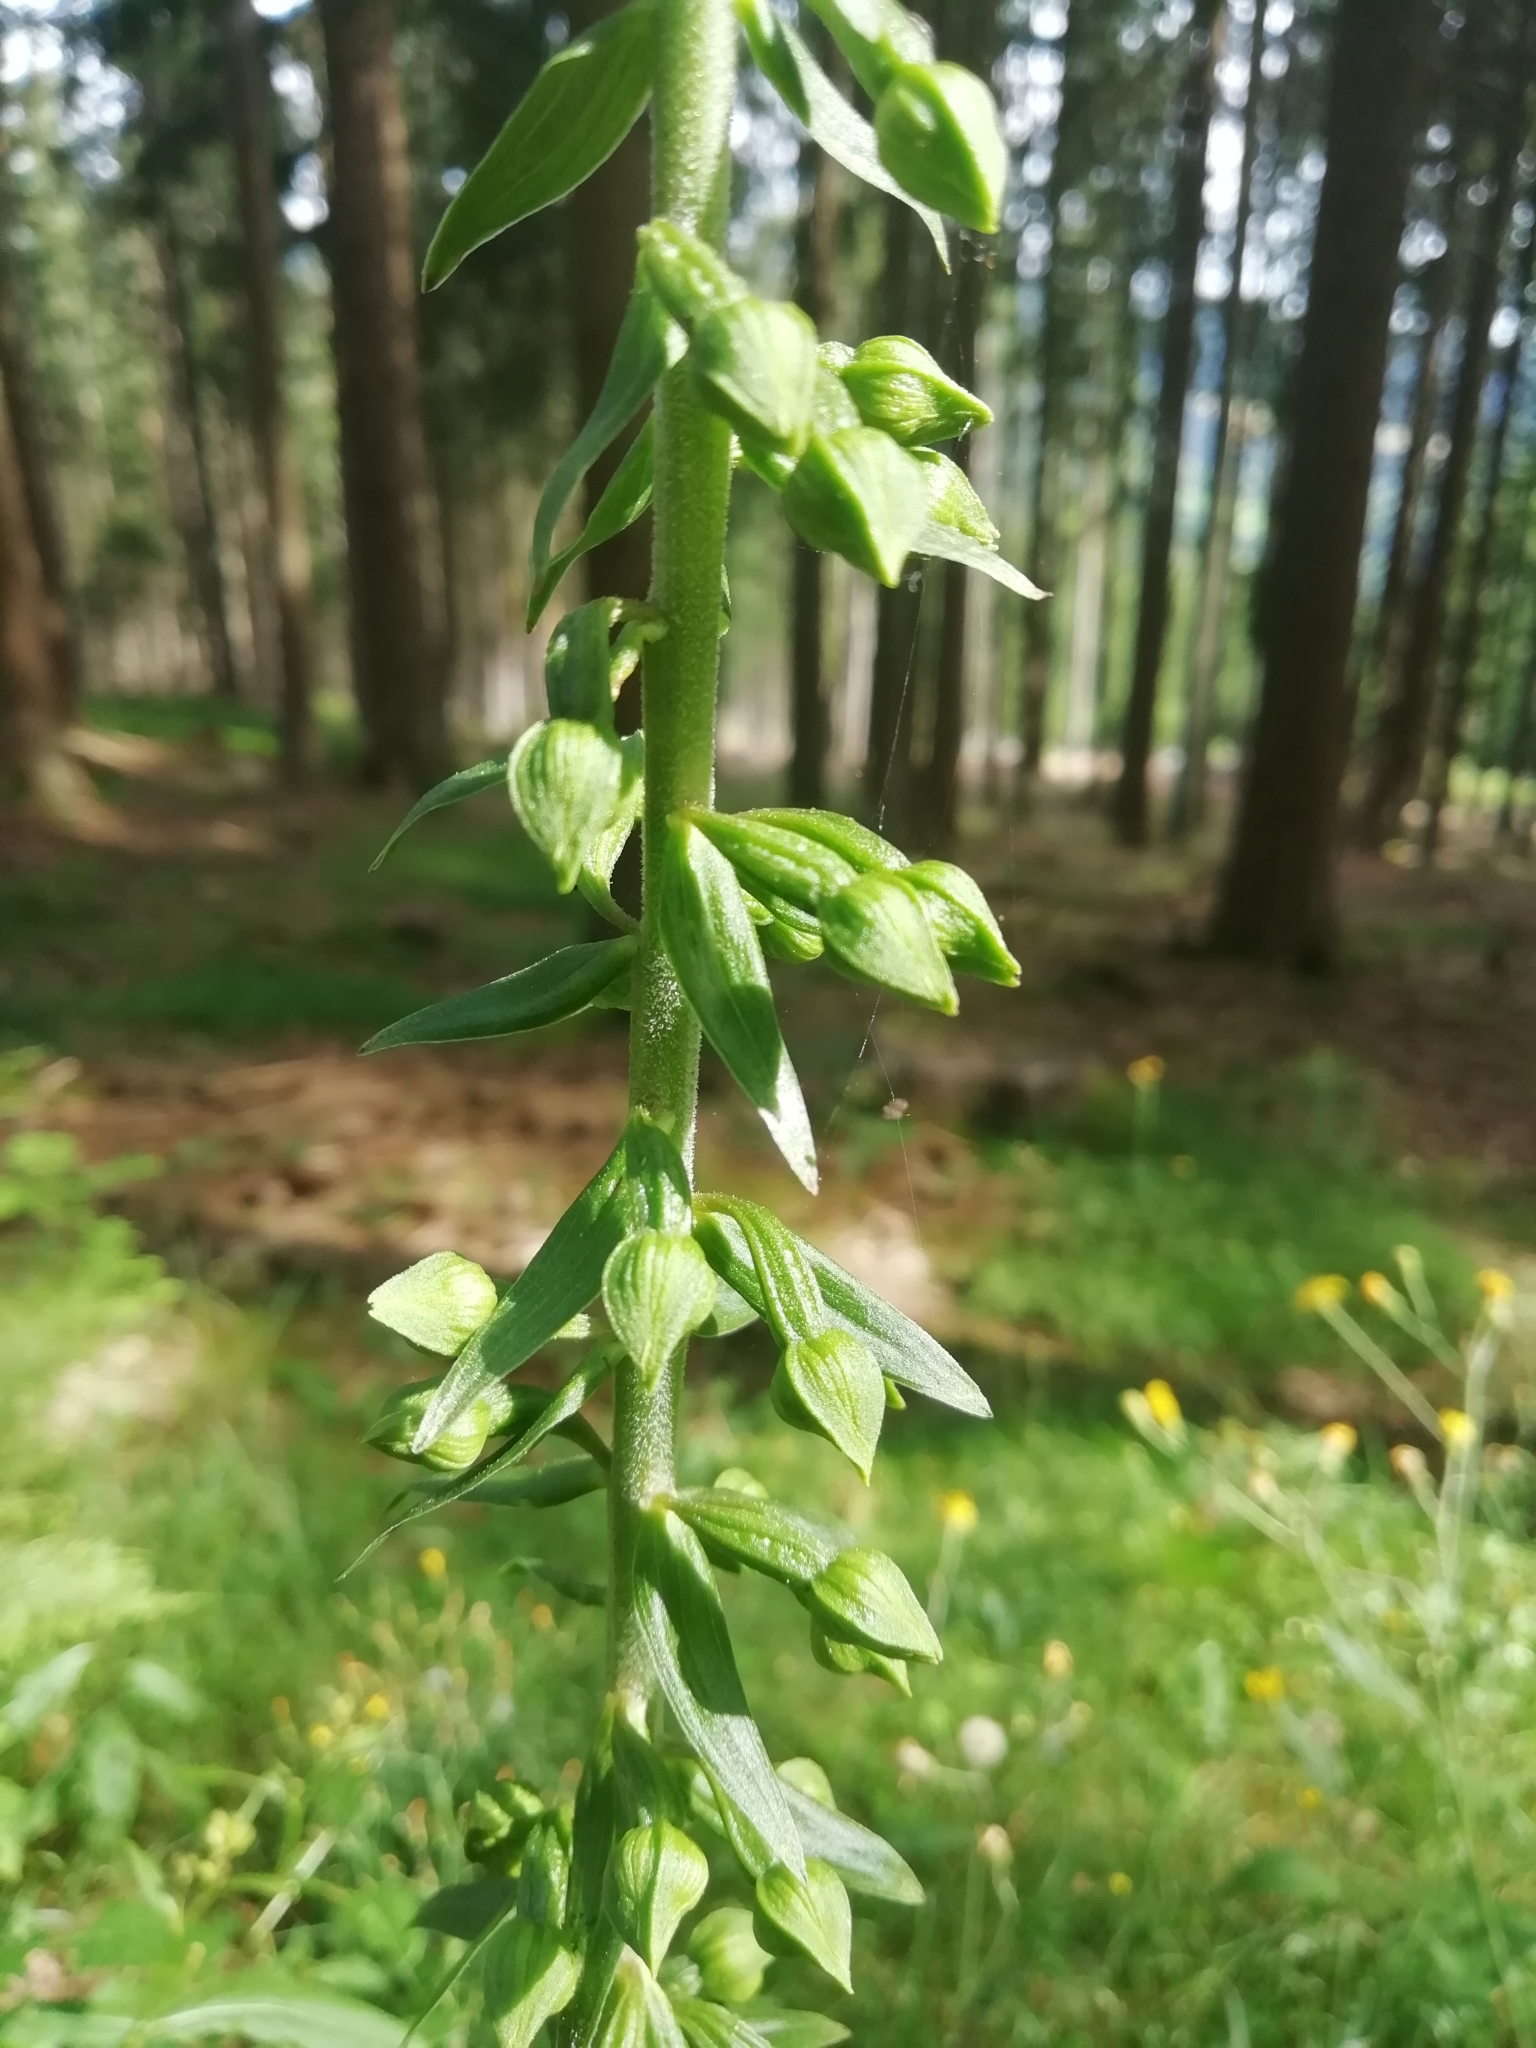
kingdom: Plantae
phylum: Tracheophyta
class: Liliopsida
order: Asparagales
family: Orchidaceae
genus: Epipactis
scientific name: Epipactis helleborine
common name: Broad-leaved helleborine
